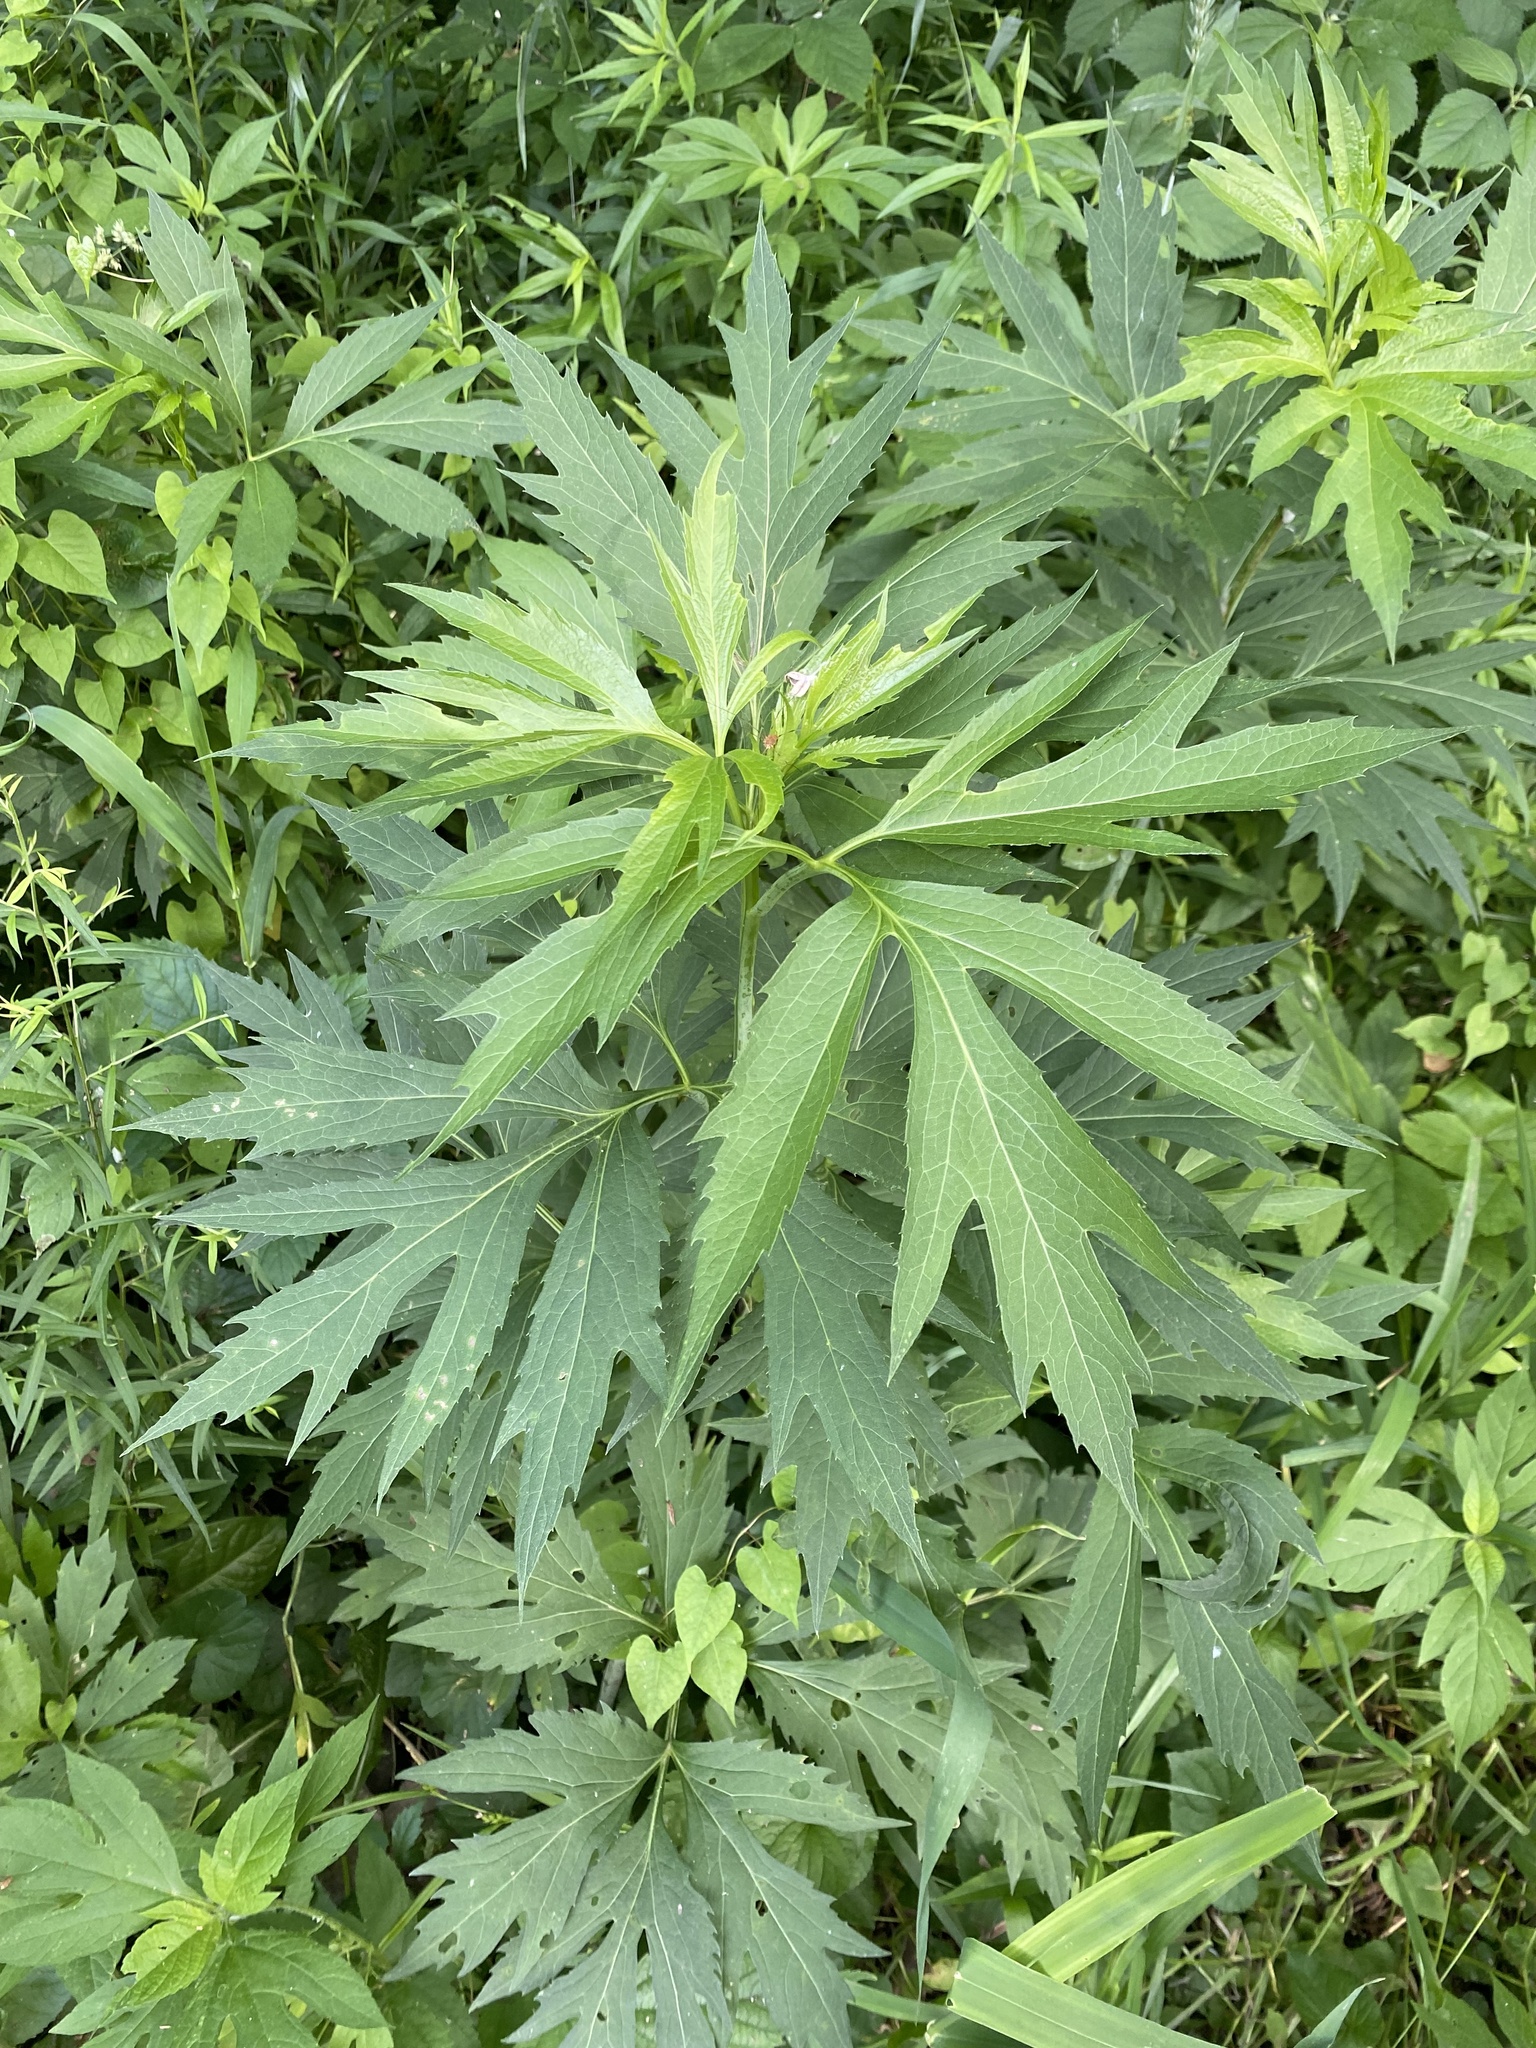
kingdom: Plantae
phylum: Tracheophyta
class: Magnoliopsida
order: Asterales
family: Asteraceae
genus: Rudbeckia
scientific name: Rudbeckia laciniata
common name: Coneflower
